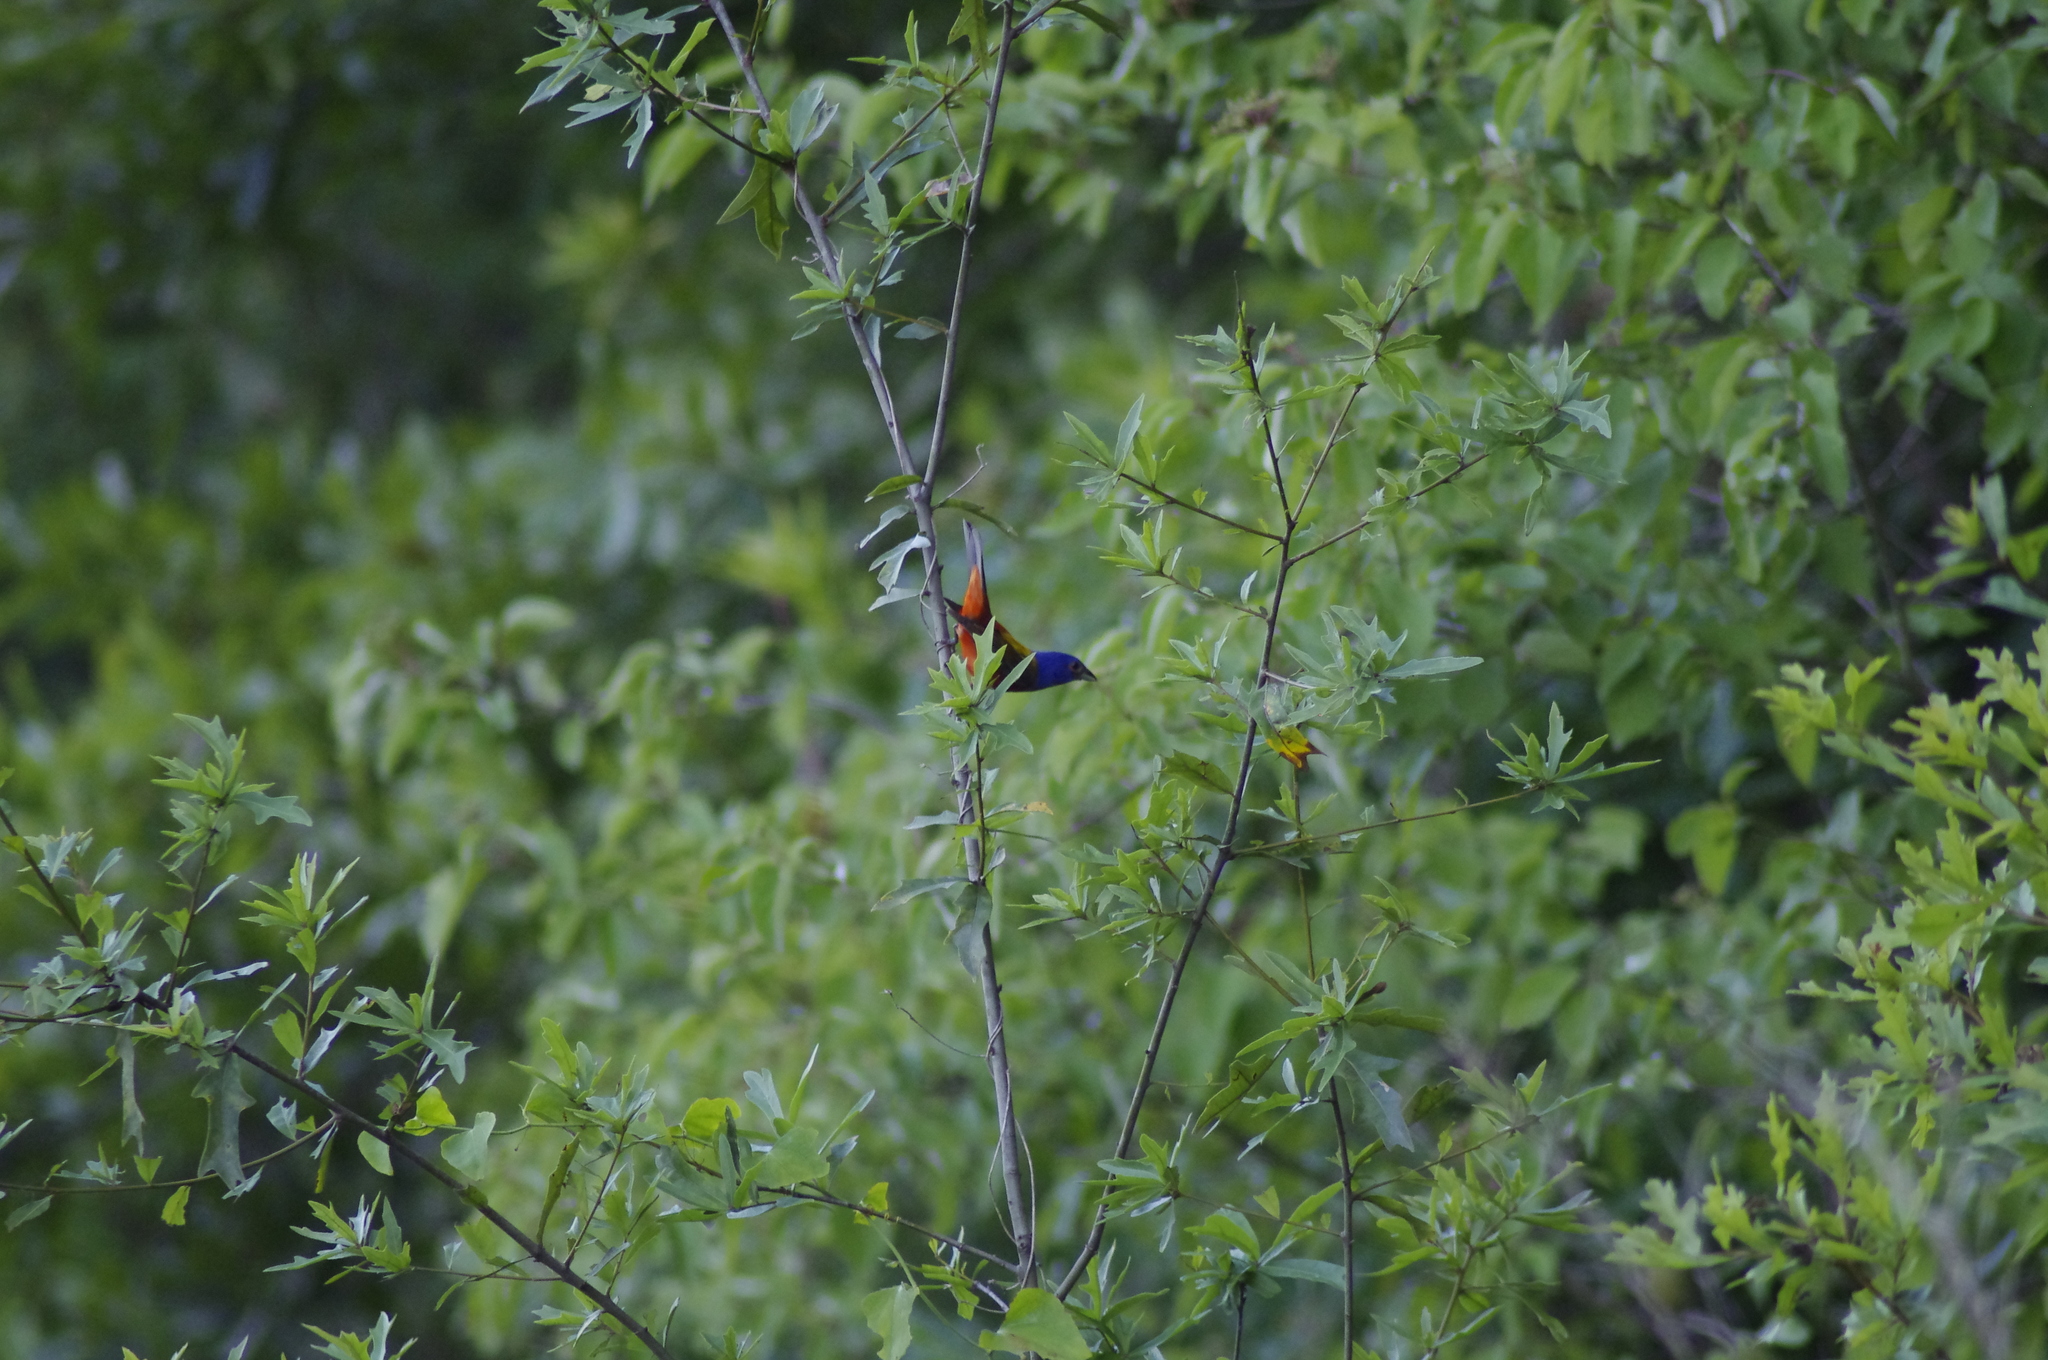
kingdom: Animalia
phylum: Chordata
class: Aves
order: Passeriformes
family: Cardinalidae
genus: Passerina
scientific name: Passerina ciris
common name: Painted bunting
